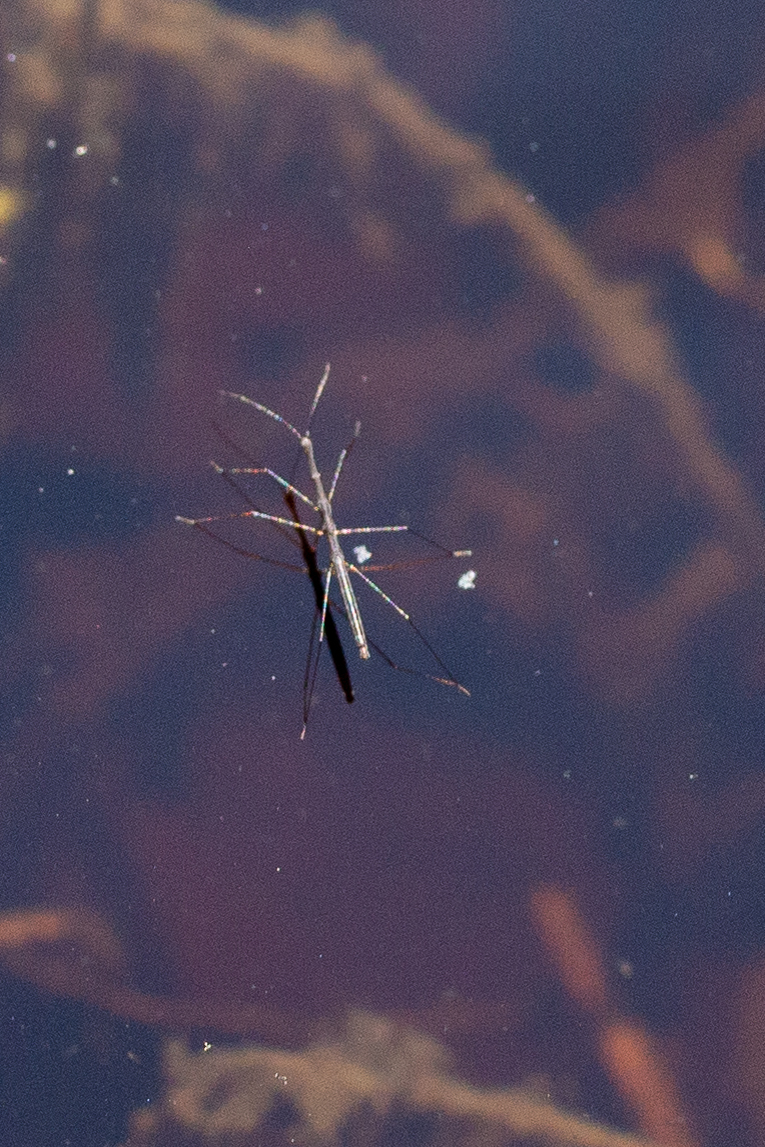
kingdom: Animalia
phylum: Arthropoda
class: Insecta
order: Hemiptera
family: Hydrometridae
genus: Hydrometra
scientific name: Hydrometra martini
